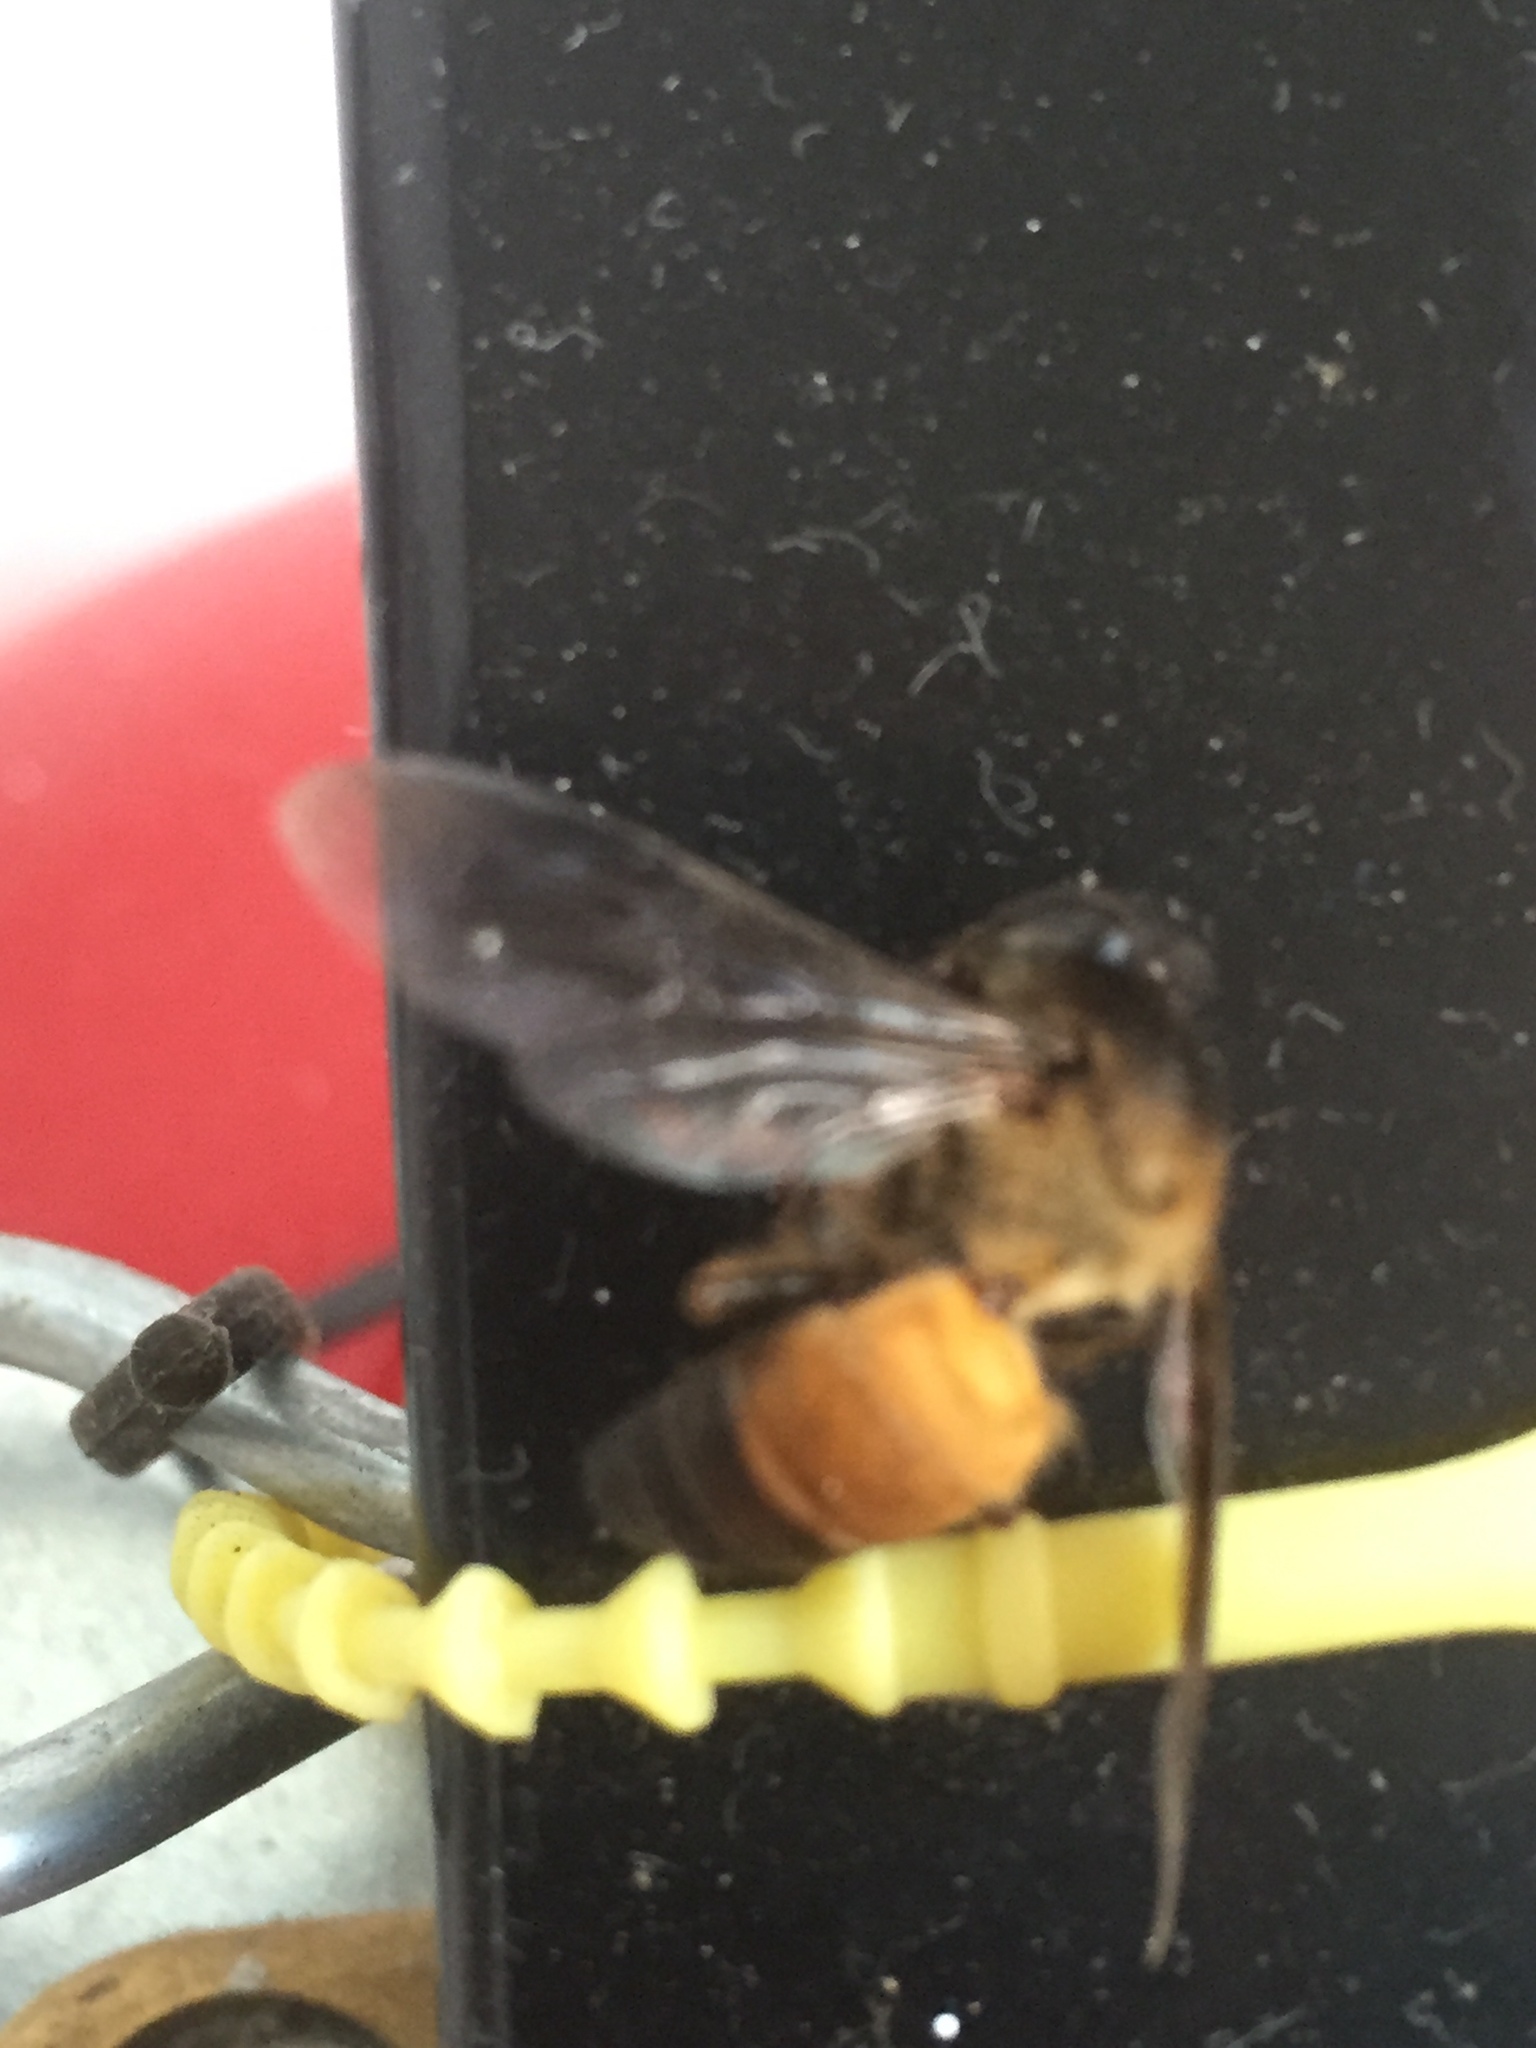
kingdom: Animalia
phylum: Arthropoda
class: Insecta
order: Hymenoptera
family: Apidae
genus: Apis
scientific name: Apis dorsata
